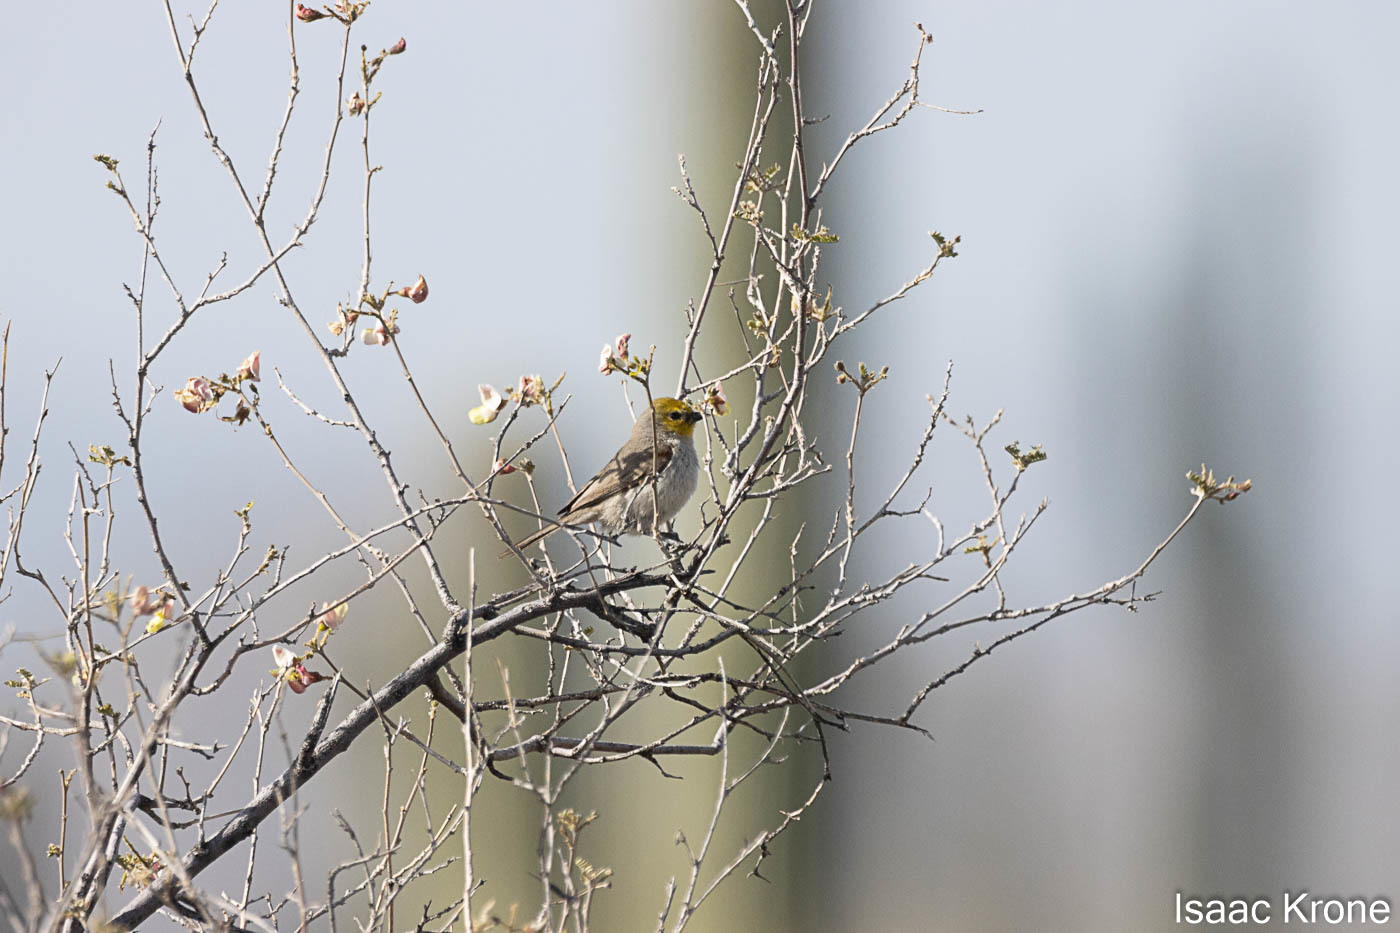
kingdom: Animalia
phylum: Chordata
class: Aves
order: Passeriformes
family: Remizidae
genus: Auriparus
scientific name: Auriparus flaviceps
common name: Verdin
